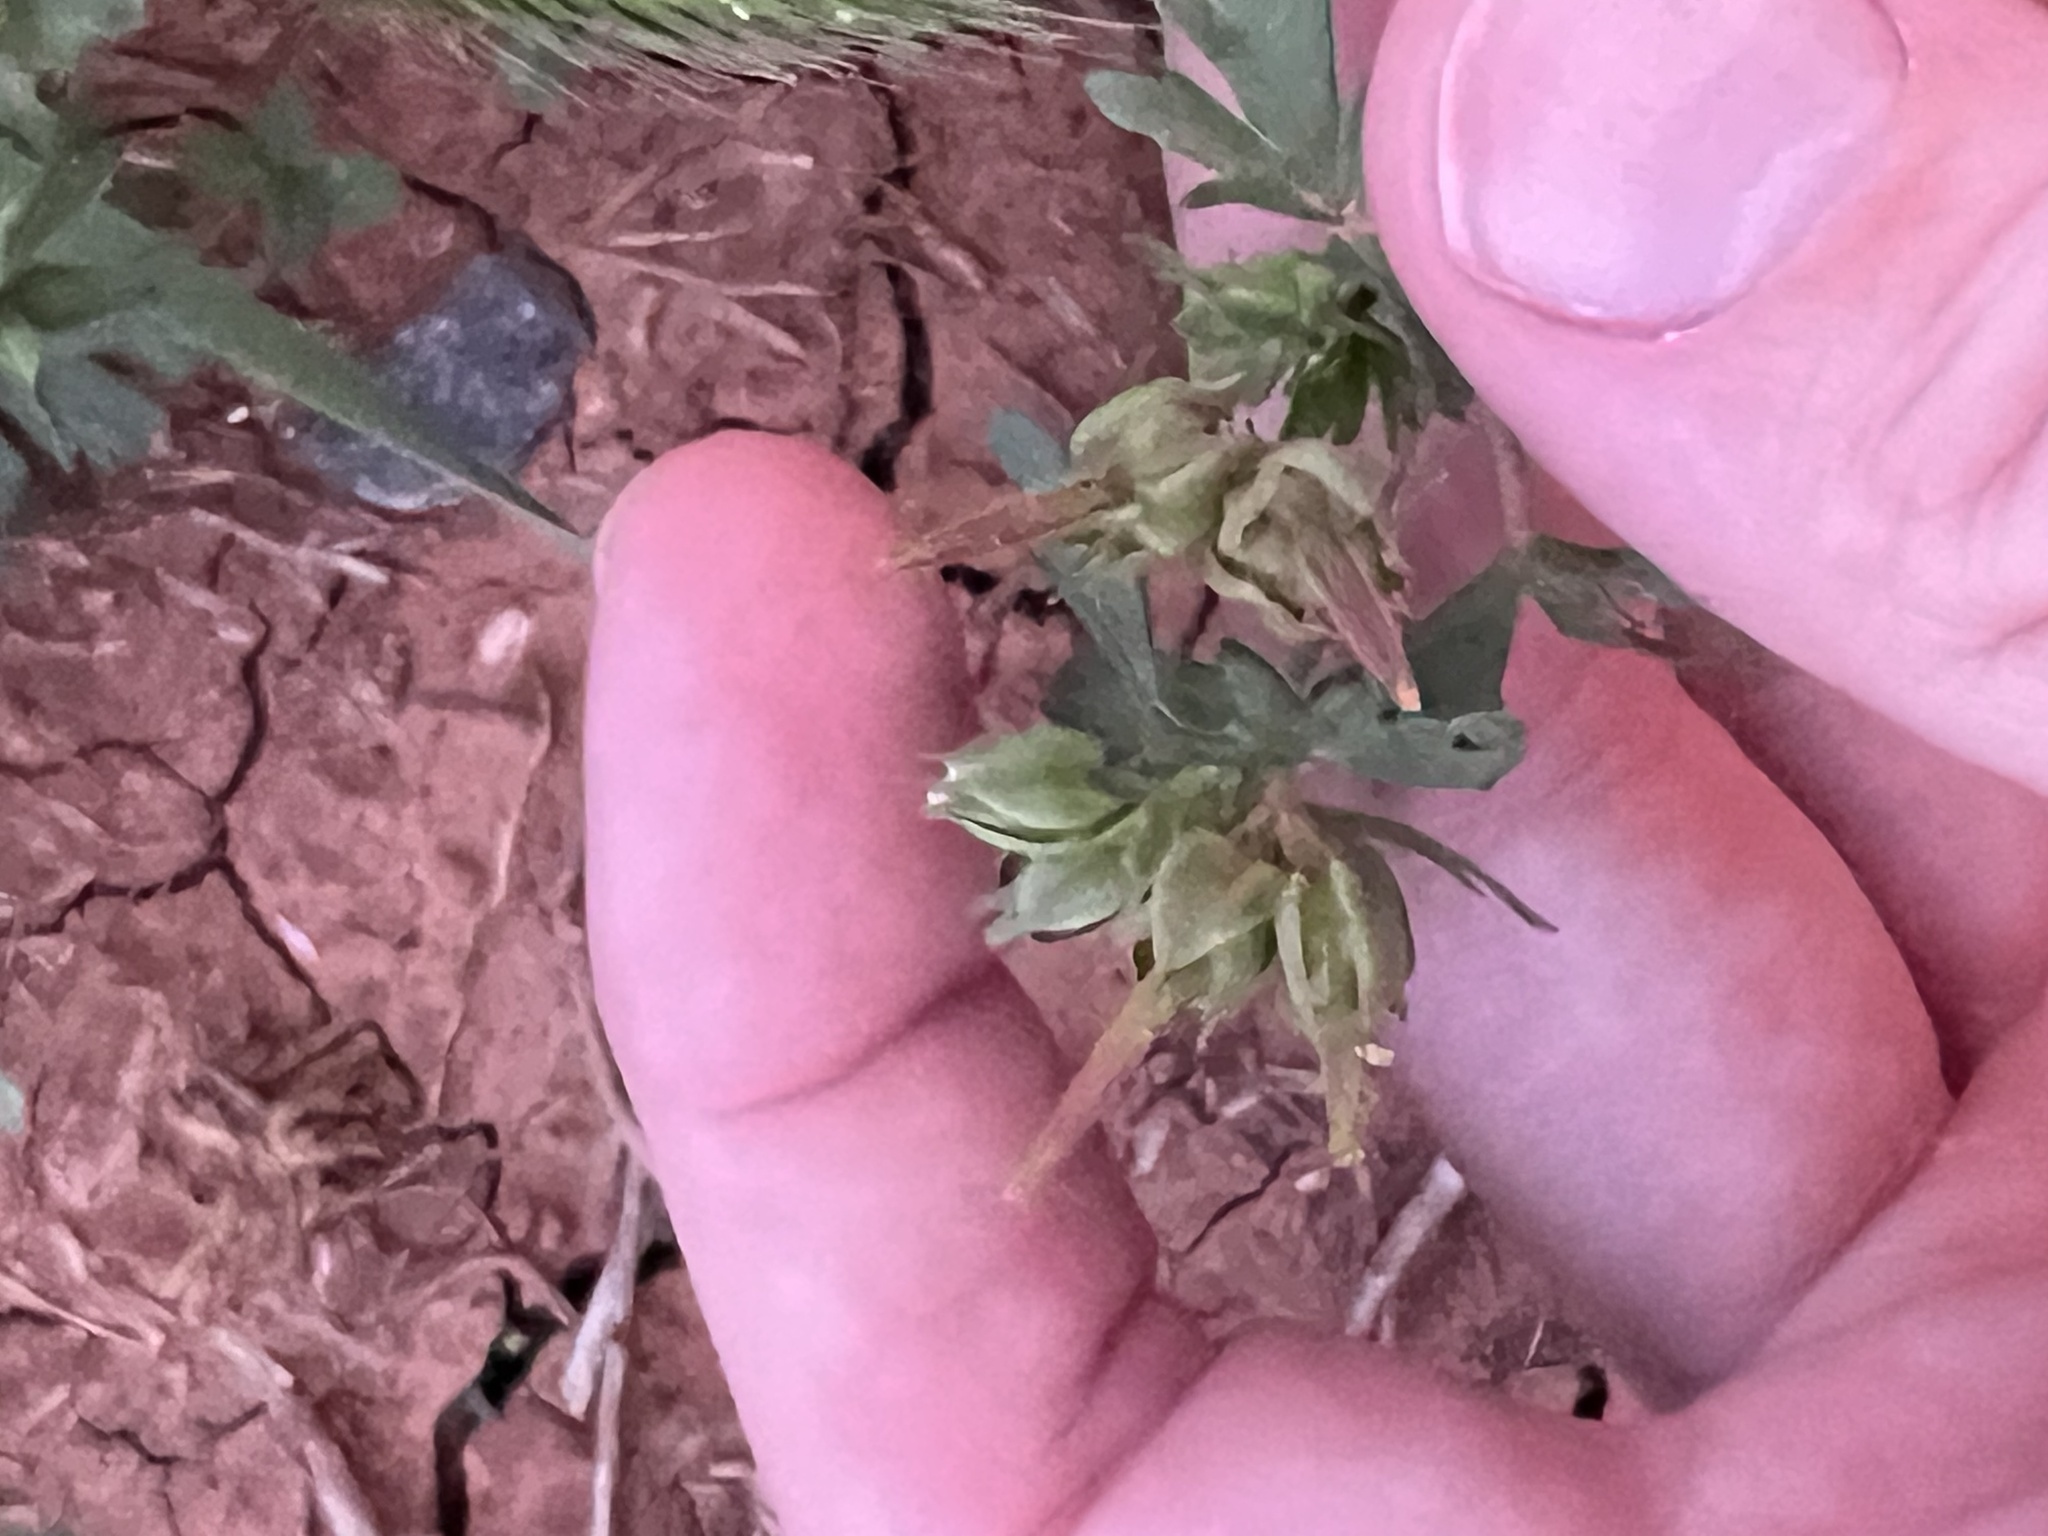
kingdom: Plantae
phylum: Tracheophyta
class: Magnoliopsida
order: Geraniales
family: Geraniaceae
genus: Geranium
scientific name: Geranium carolinianum
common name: Carolina crane's-bill
